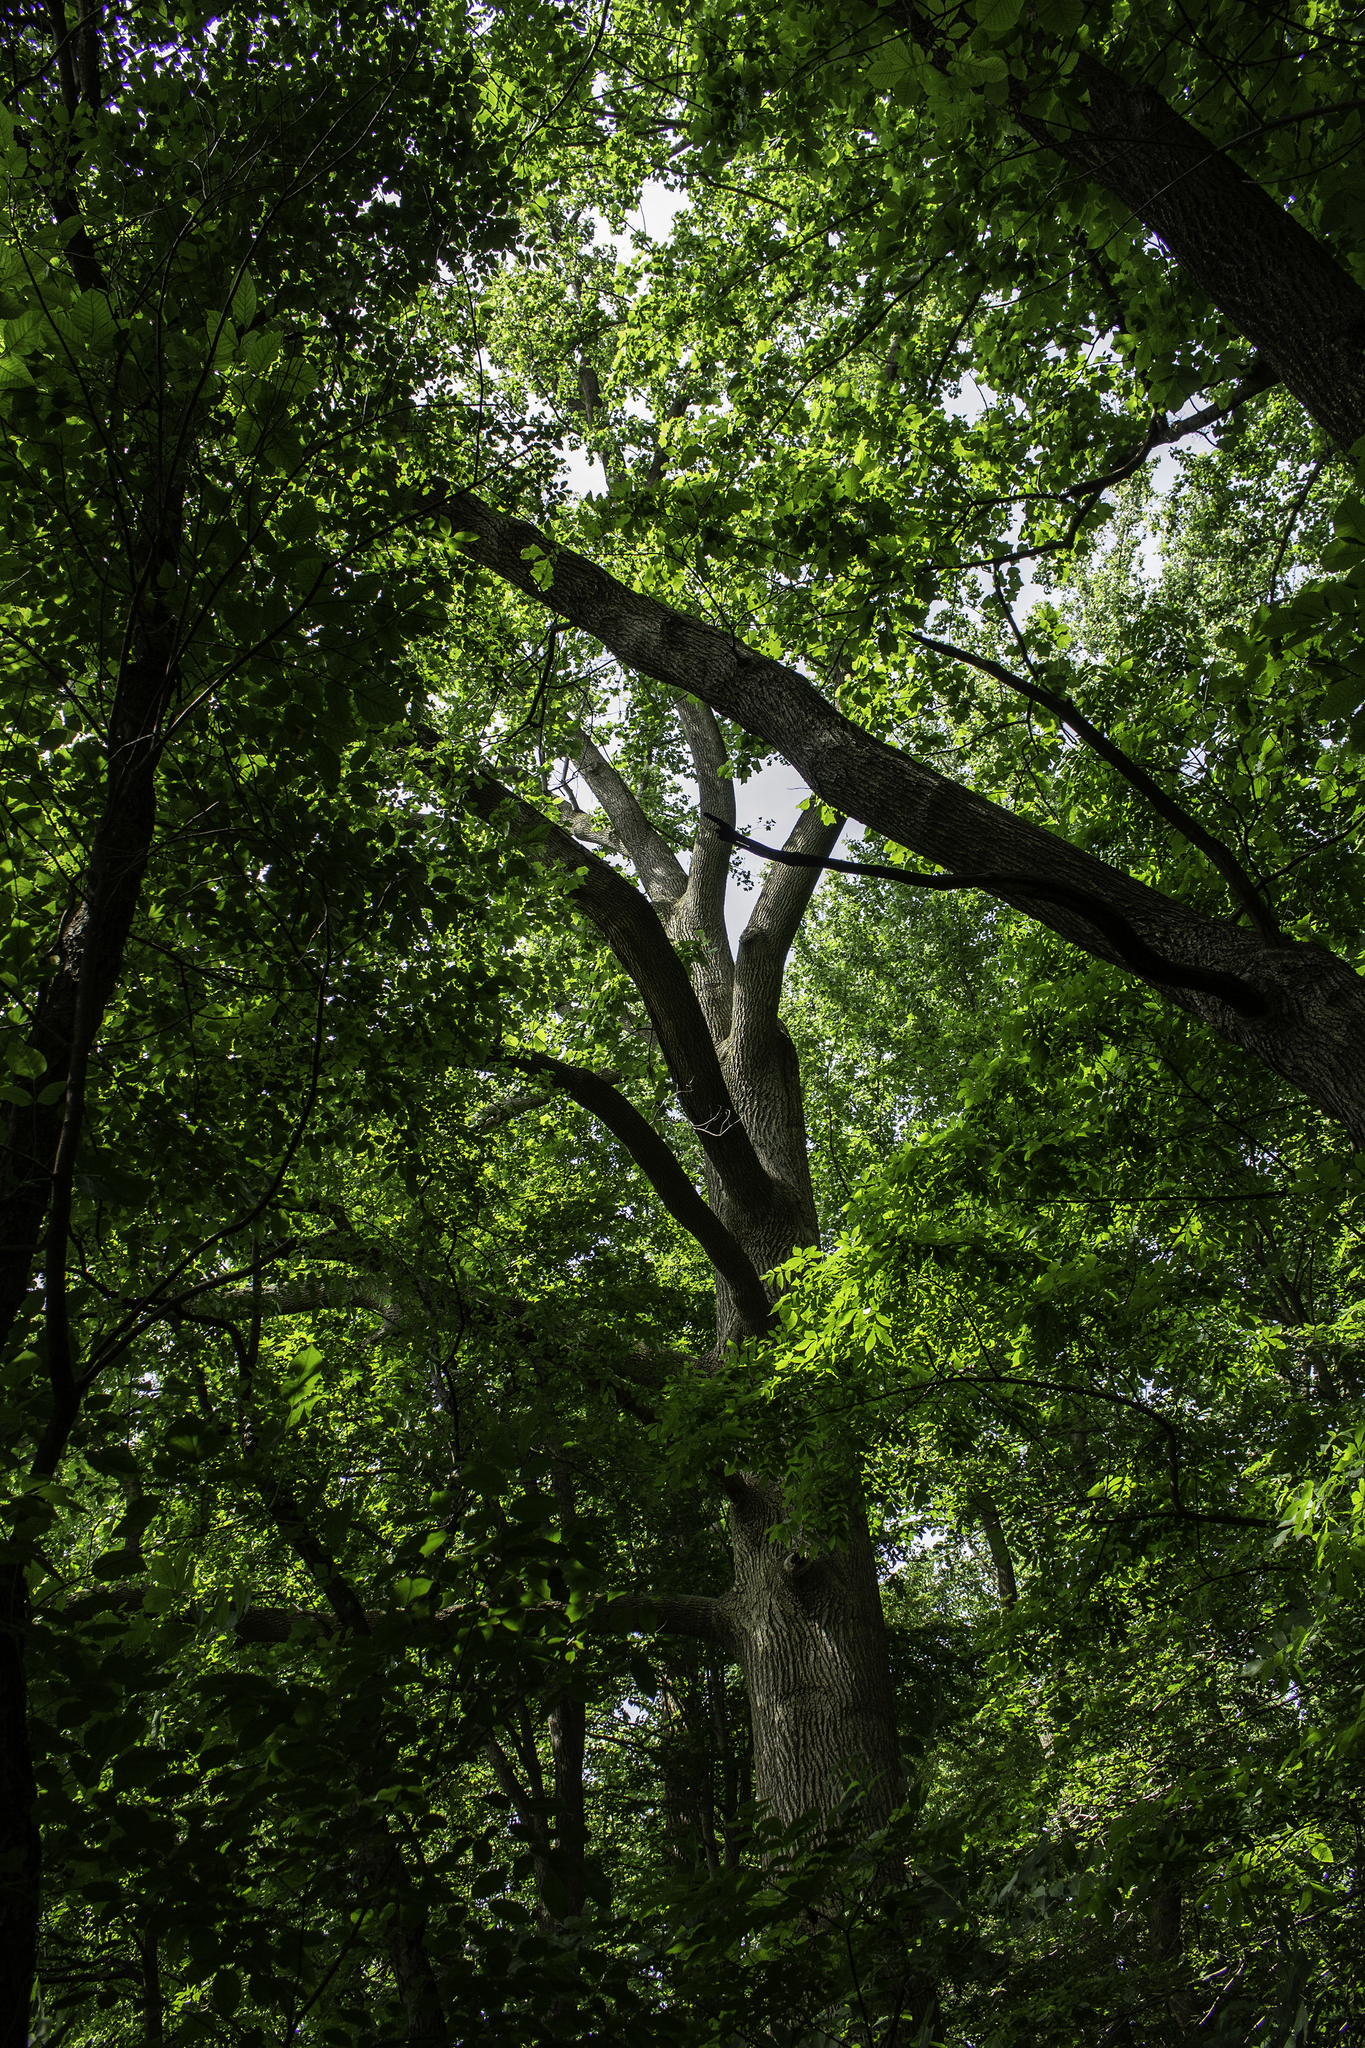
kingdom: Plantae
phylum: Tracheophyta
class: Magnoliopsida
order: Magnoliales
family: Magnoliaceae
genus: Liriodendron
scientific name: Liriodendron tulipifera
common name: Tulip tree
